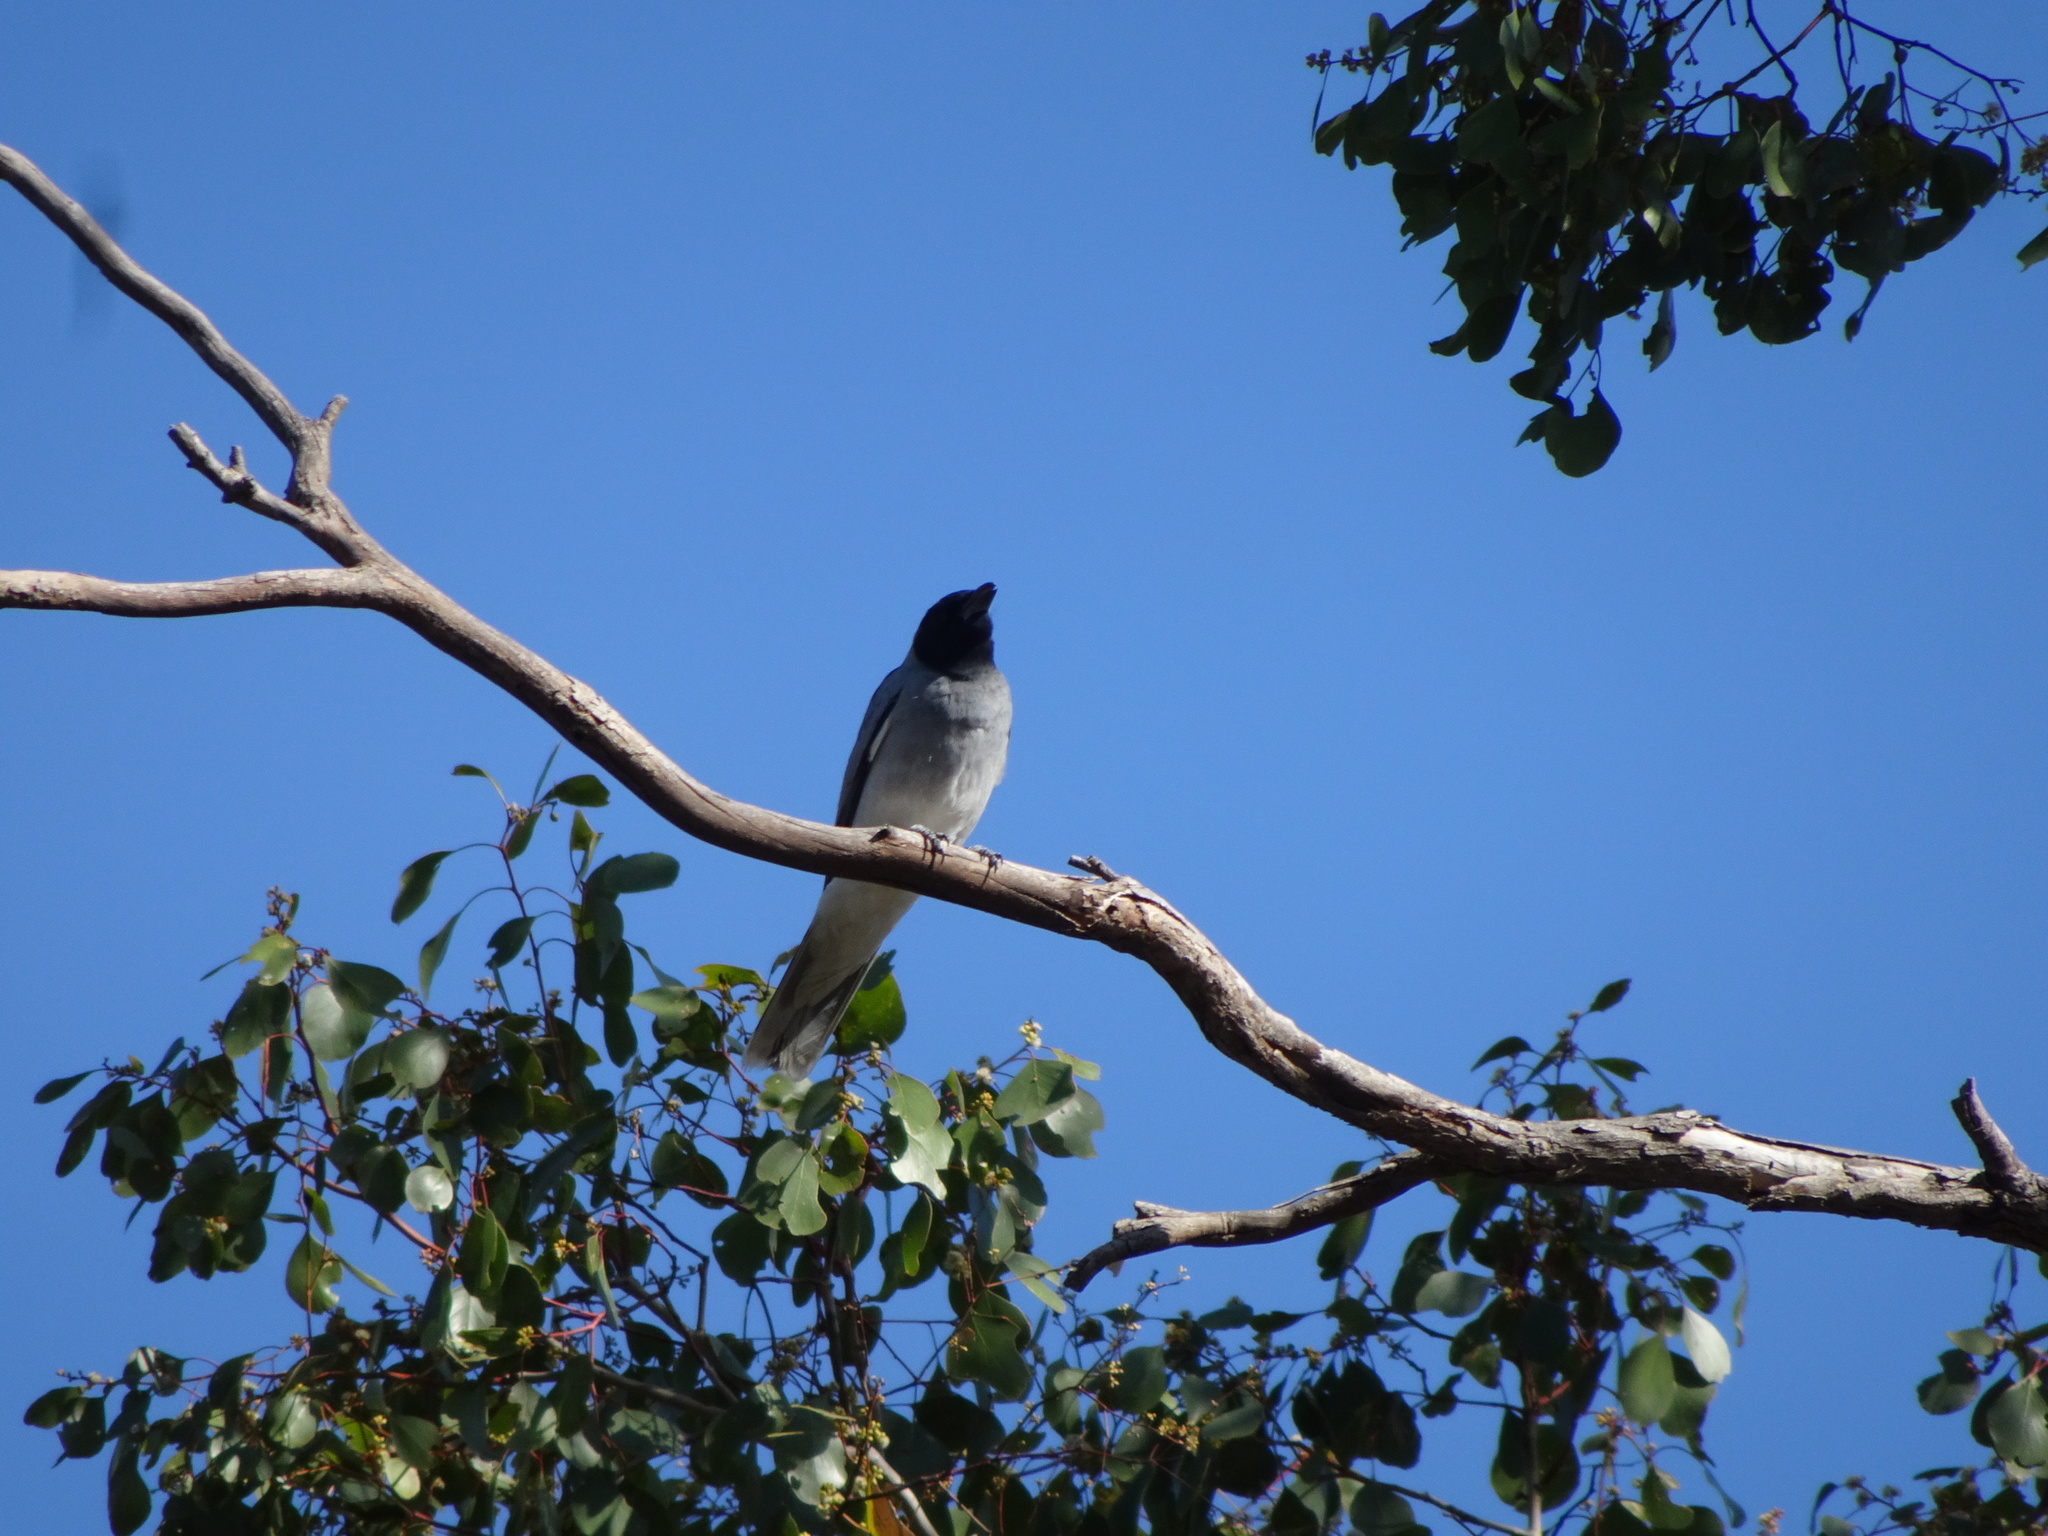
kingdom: Animalia
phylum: Chordata
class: Aves
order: Passeriformes
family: Campephagidae
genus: Coracina
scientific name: Coracina novaehollandiae
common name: Black-faced cuckooshrike
